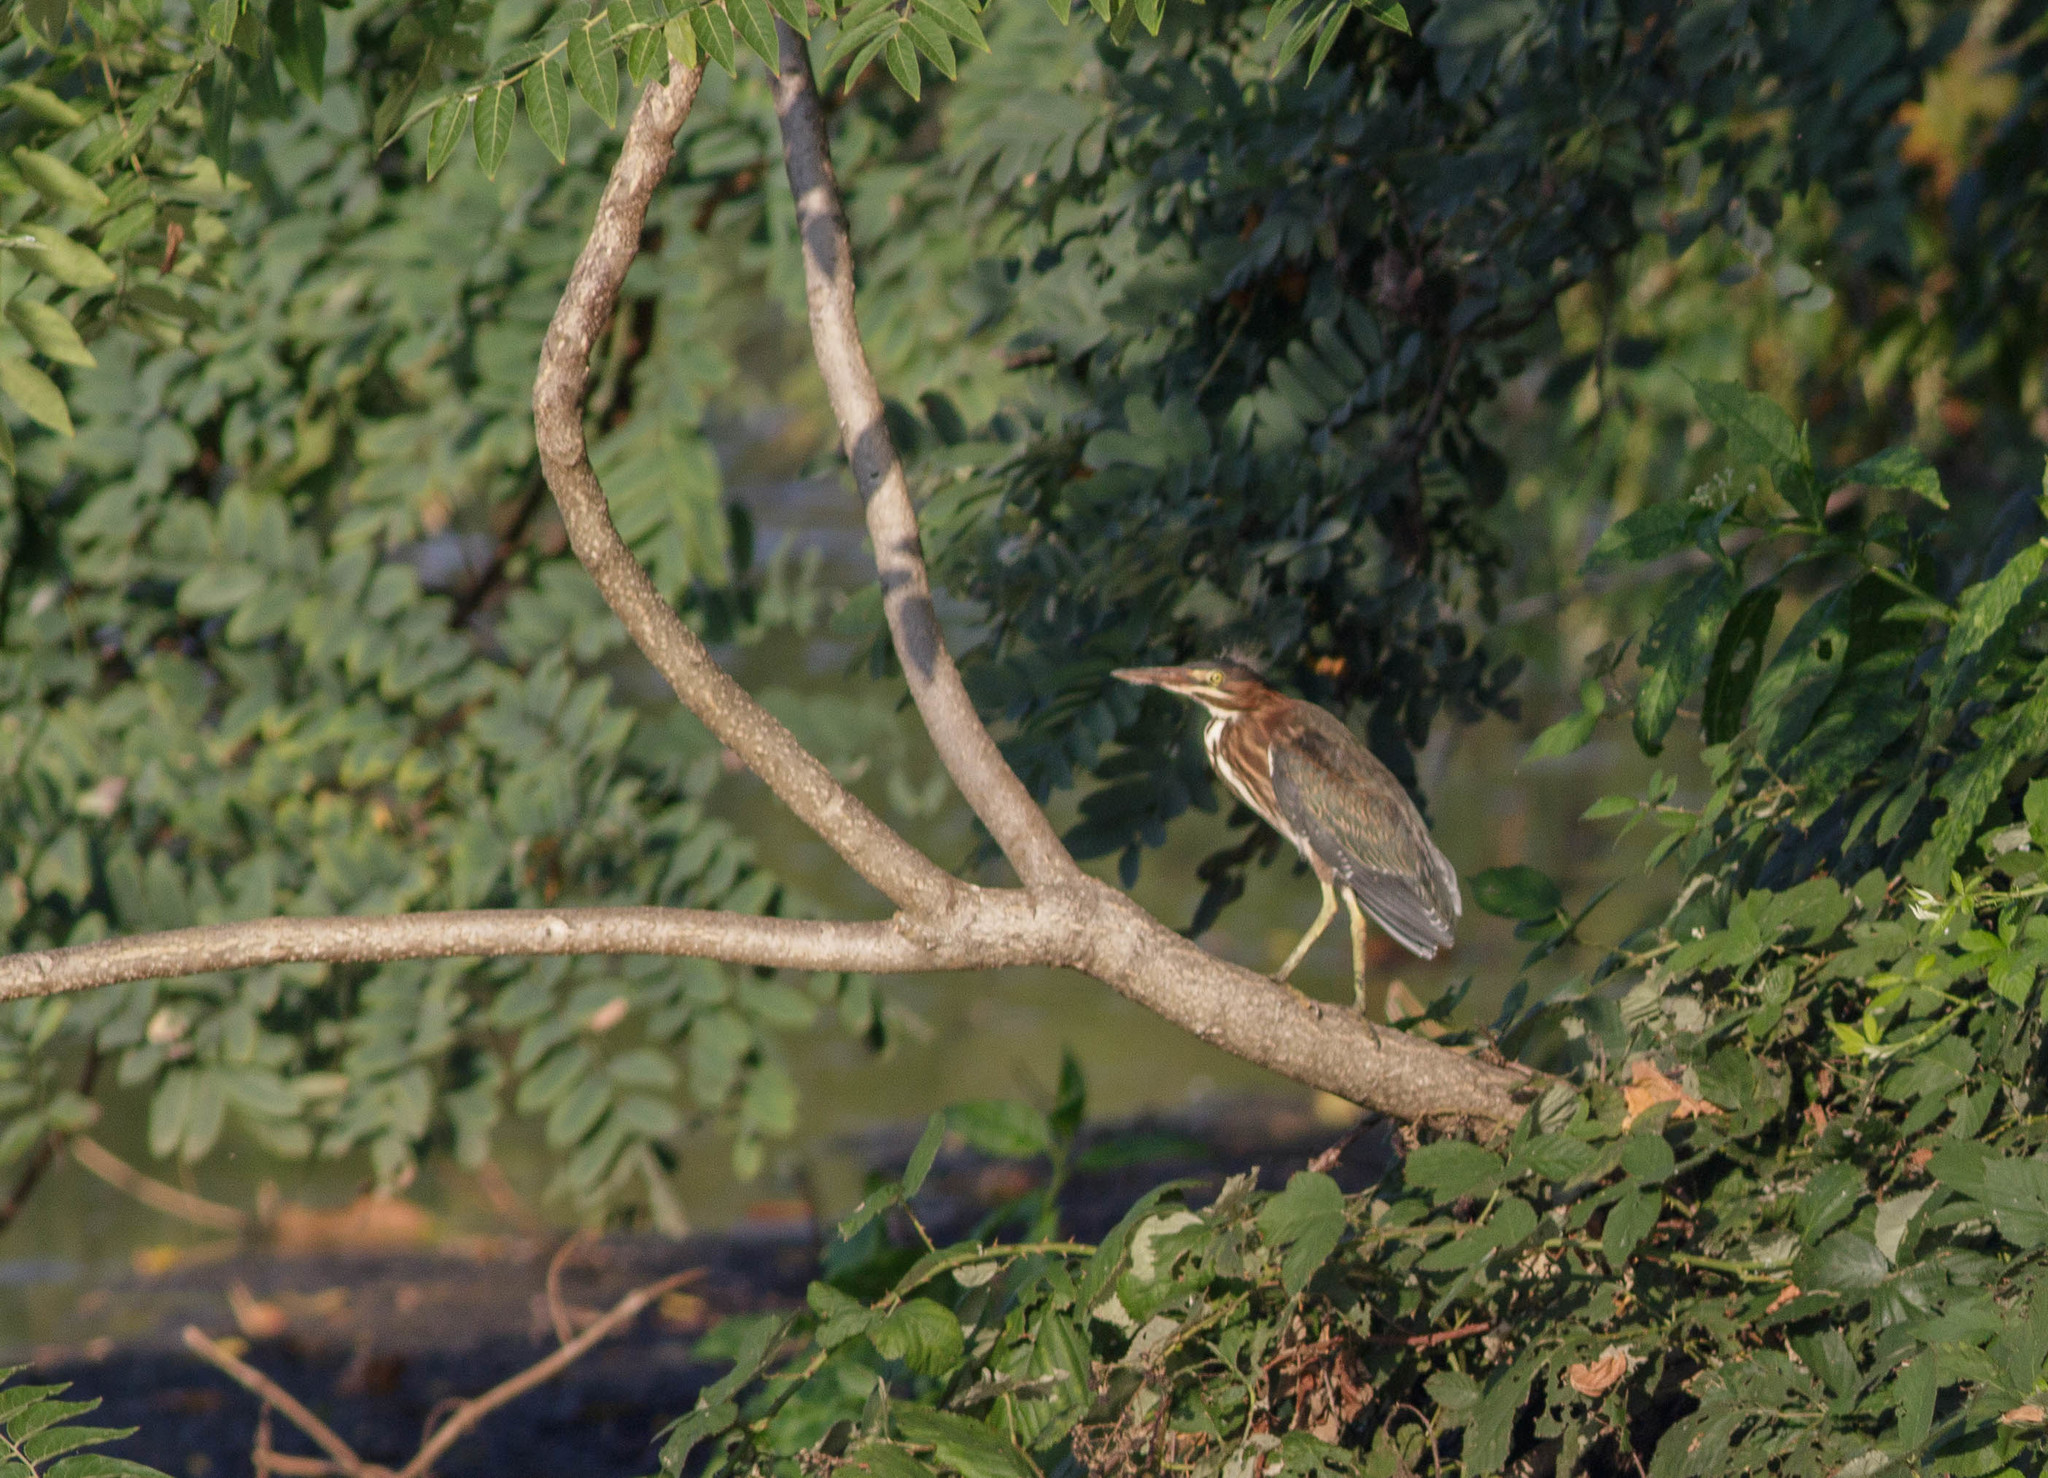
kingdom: Animalia
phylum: Chordata
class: Aves
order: Pelecaniformes
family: Ardeidae
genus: Butorides
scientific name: Butorides virescens
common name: Green heron
